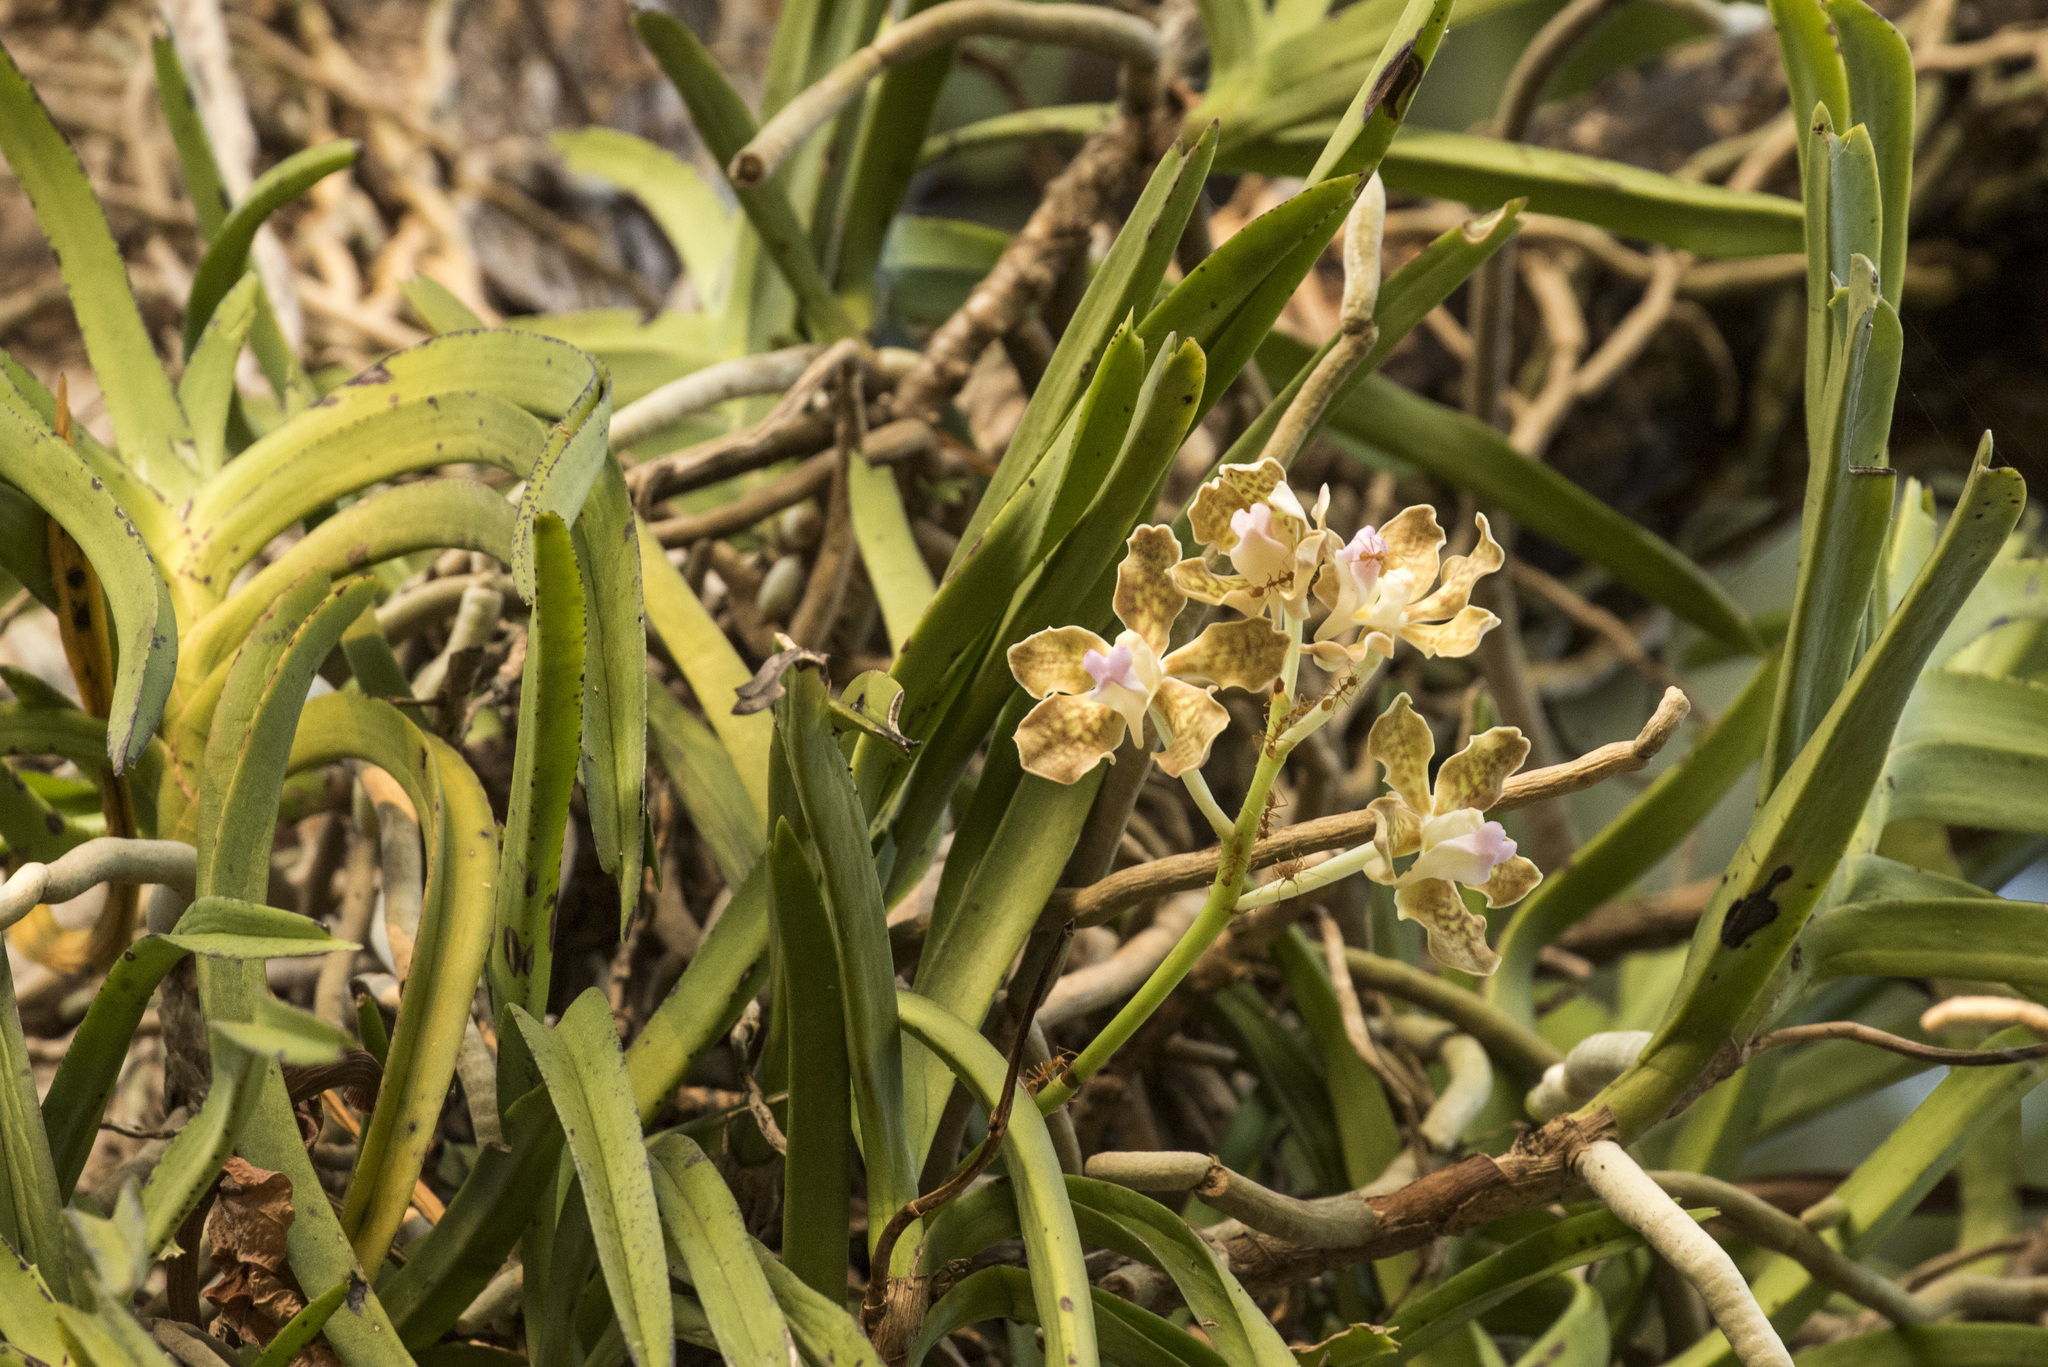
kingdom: Plantae
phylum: Tracheophyta
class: Liliopsida
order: Asparagales
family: Orchidaceae
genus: Vanda
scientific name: Vanda tessellata
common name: Grey orchid
